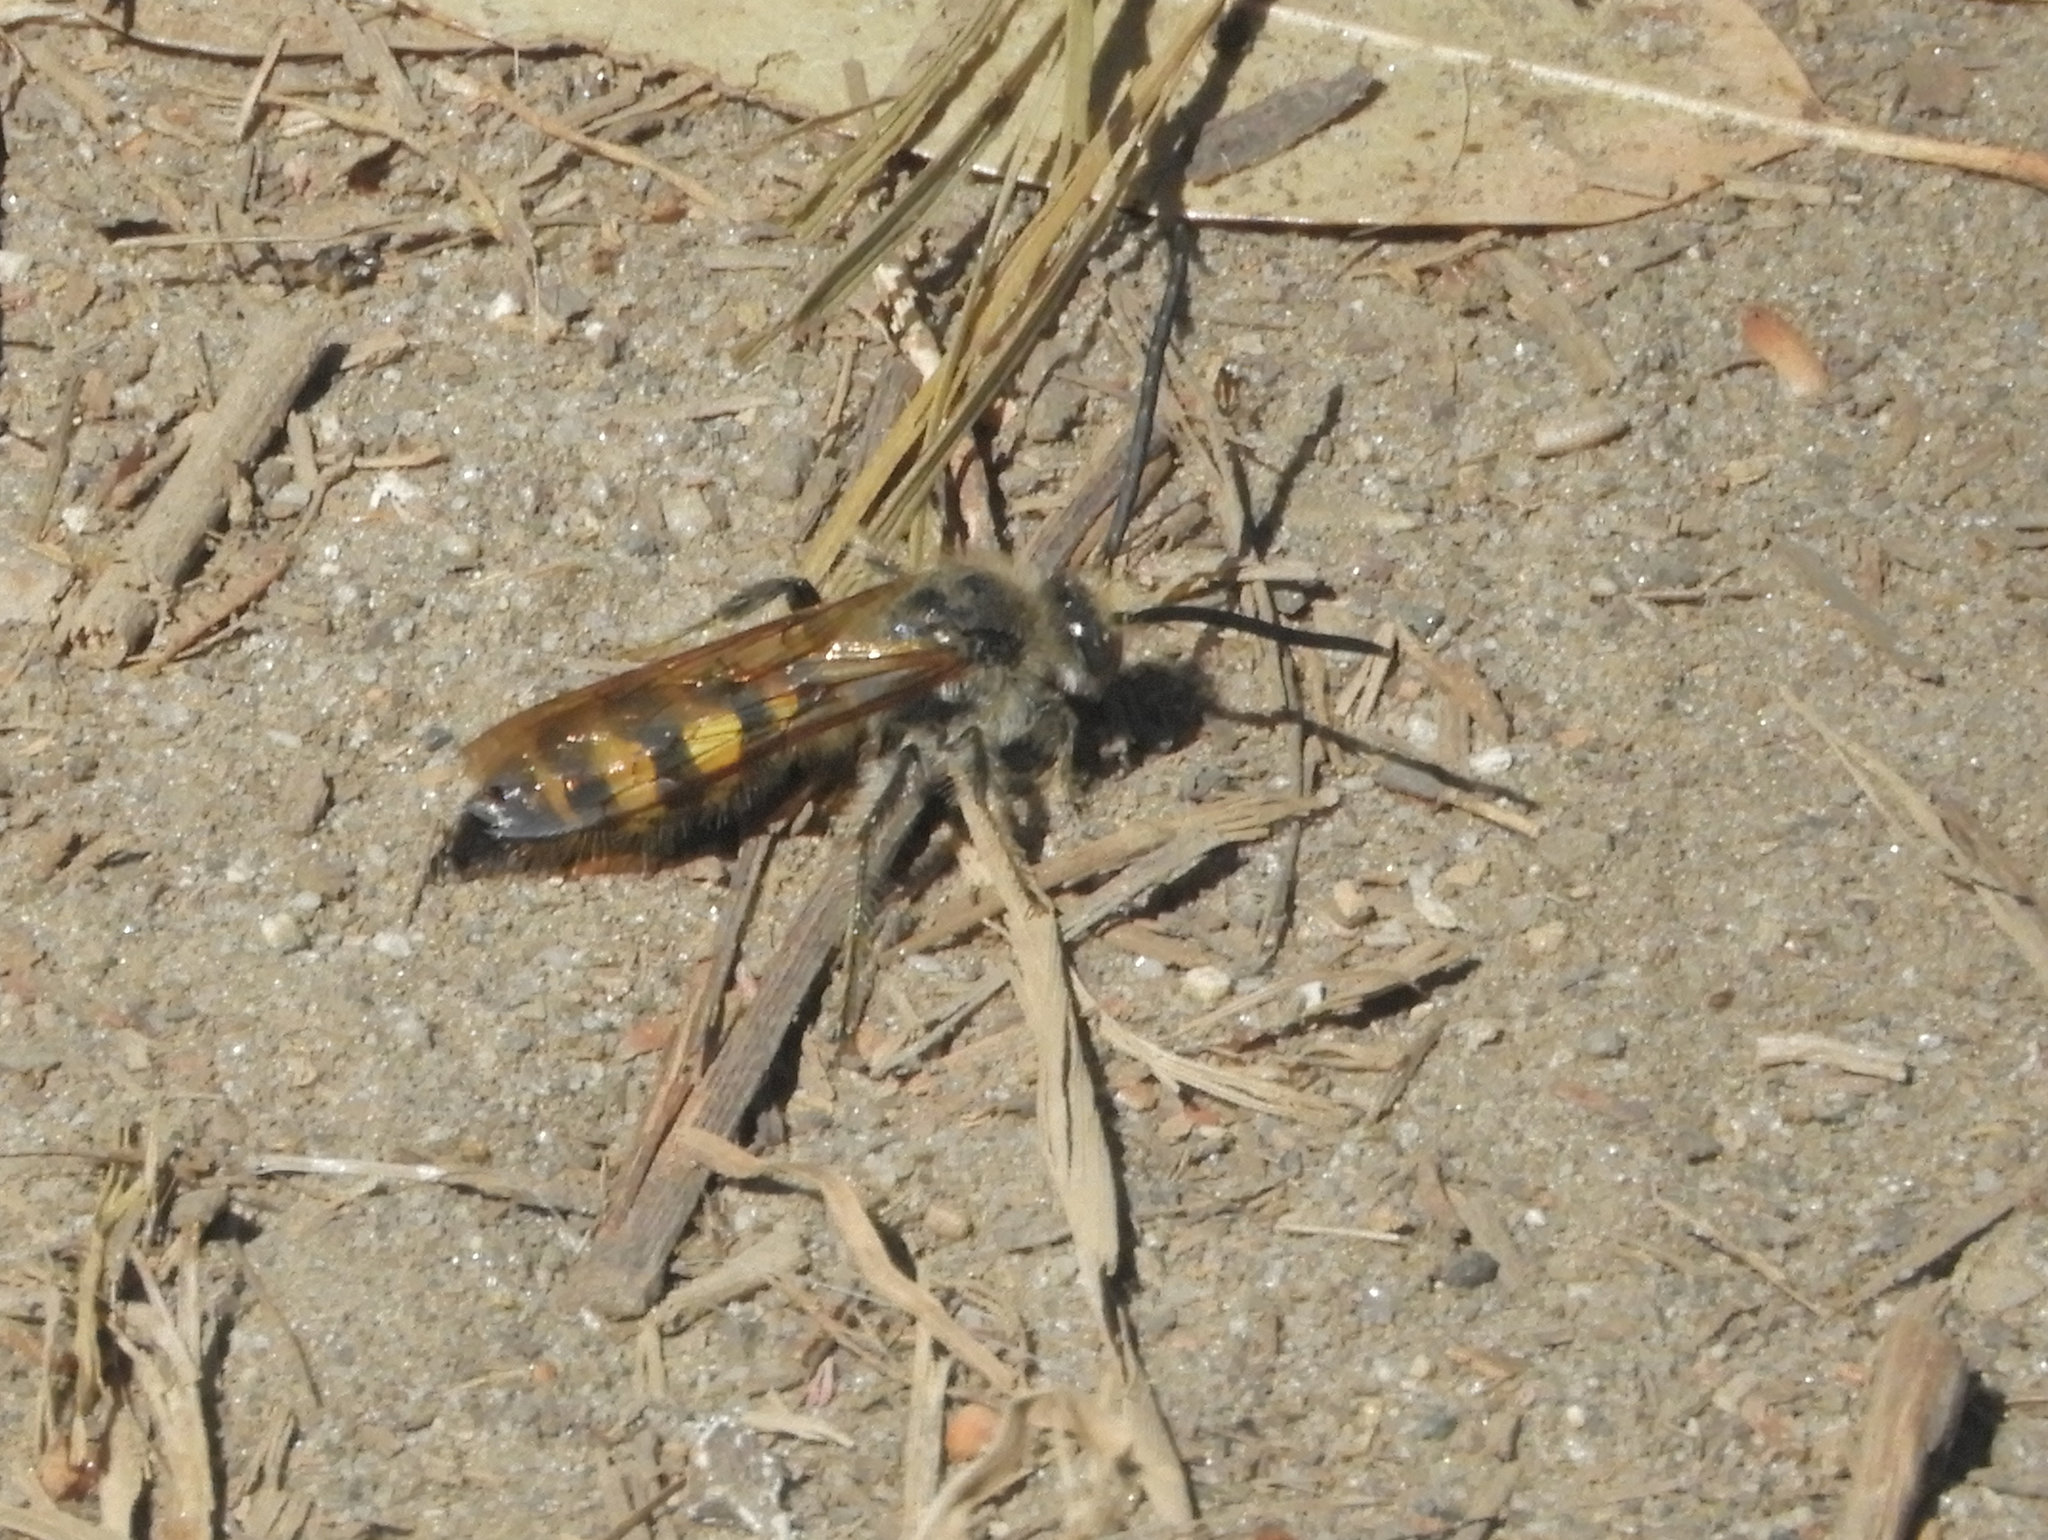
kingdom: Animalia
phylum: Arthropoda
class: Insecta
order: Hymenoptera
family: Scoliidae
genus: Dielis
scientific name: Dielis tolteca
